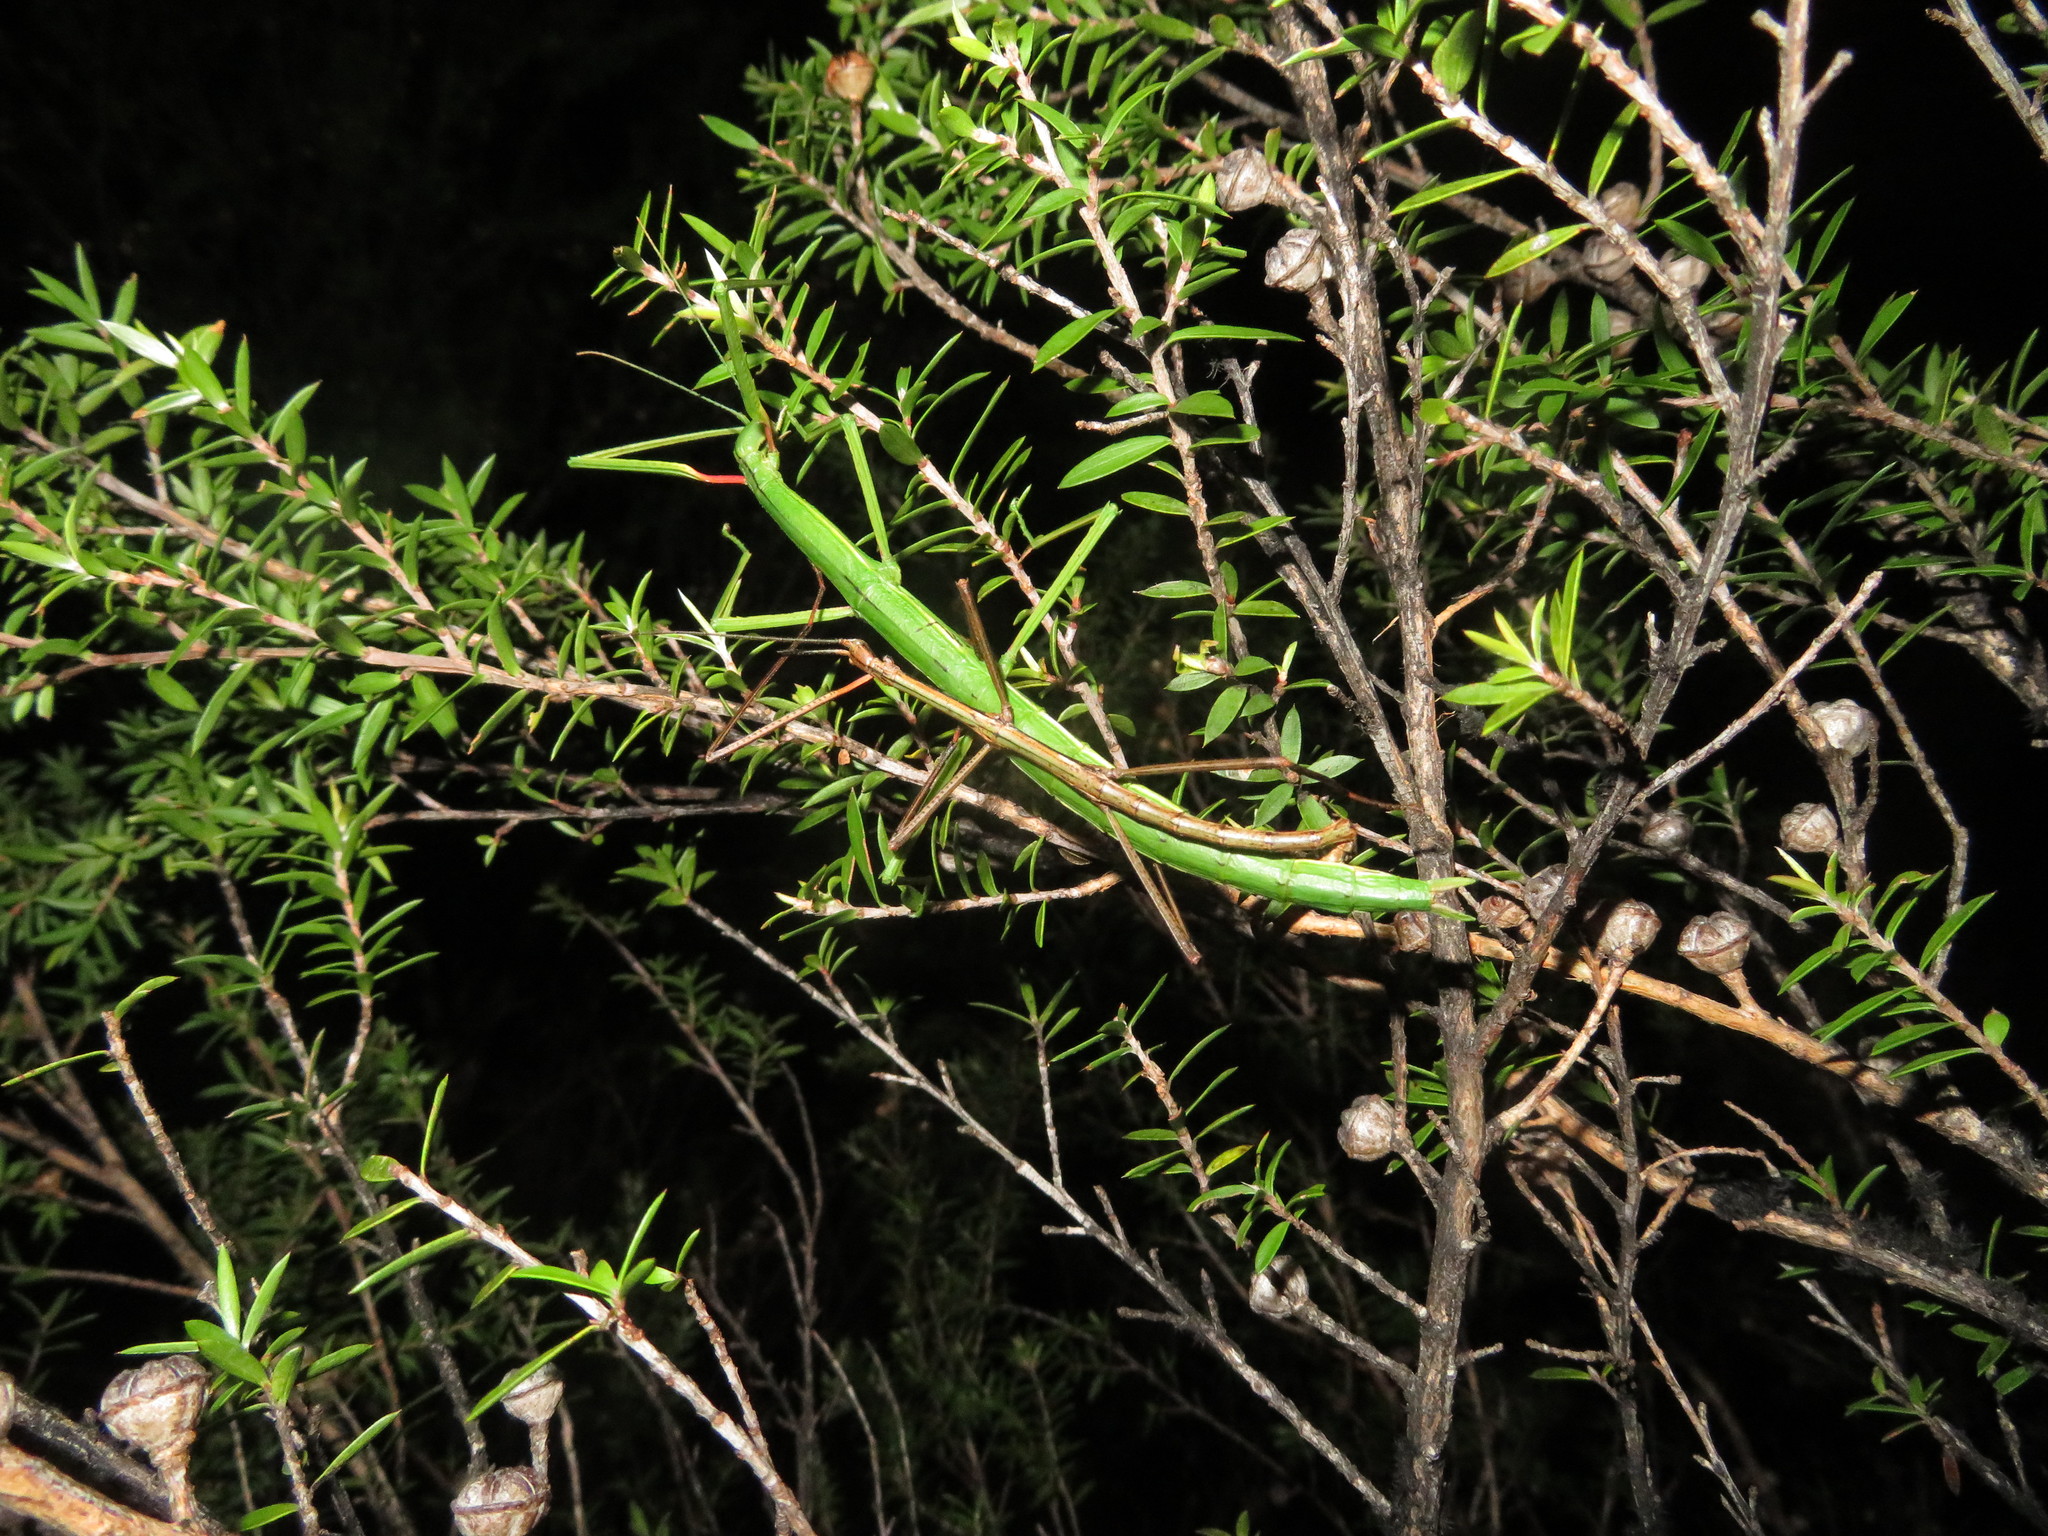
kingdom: Animalia
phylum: Arthropoda
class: Insecta
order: Phasmida
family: Phasmatidae
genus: Clitarchus
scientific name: Clitarchus hookeri
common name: Smooth stick insect
